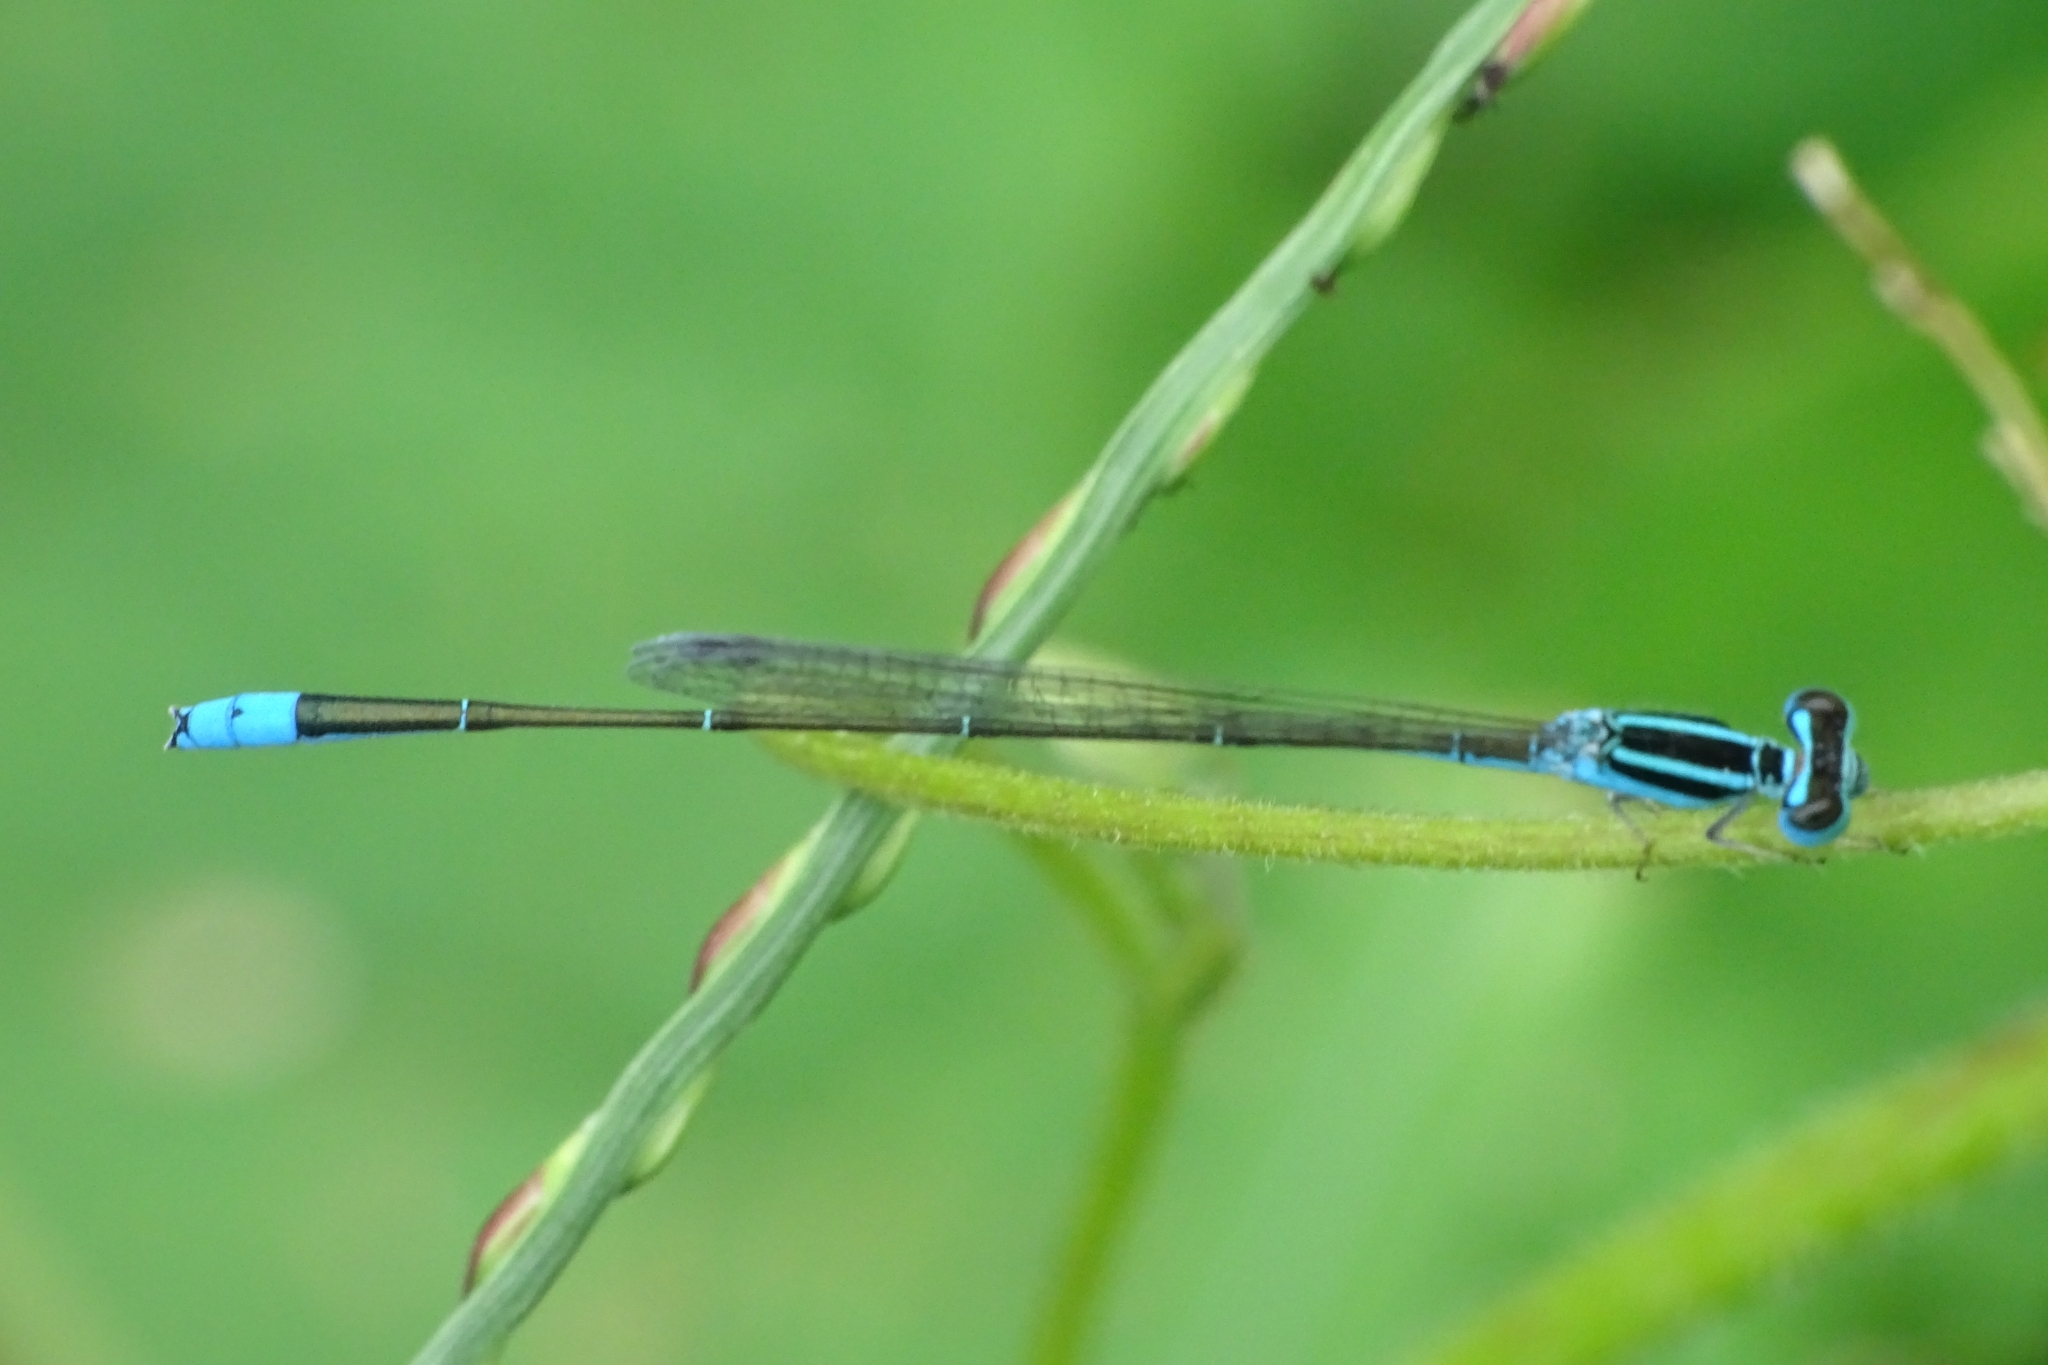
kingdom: Animalia
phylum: Arthropoda
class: Insecta
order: Odonata
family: Coenagrionidae
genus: Aciagrion
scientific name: Aciagrion occidentale
